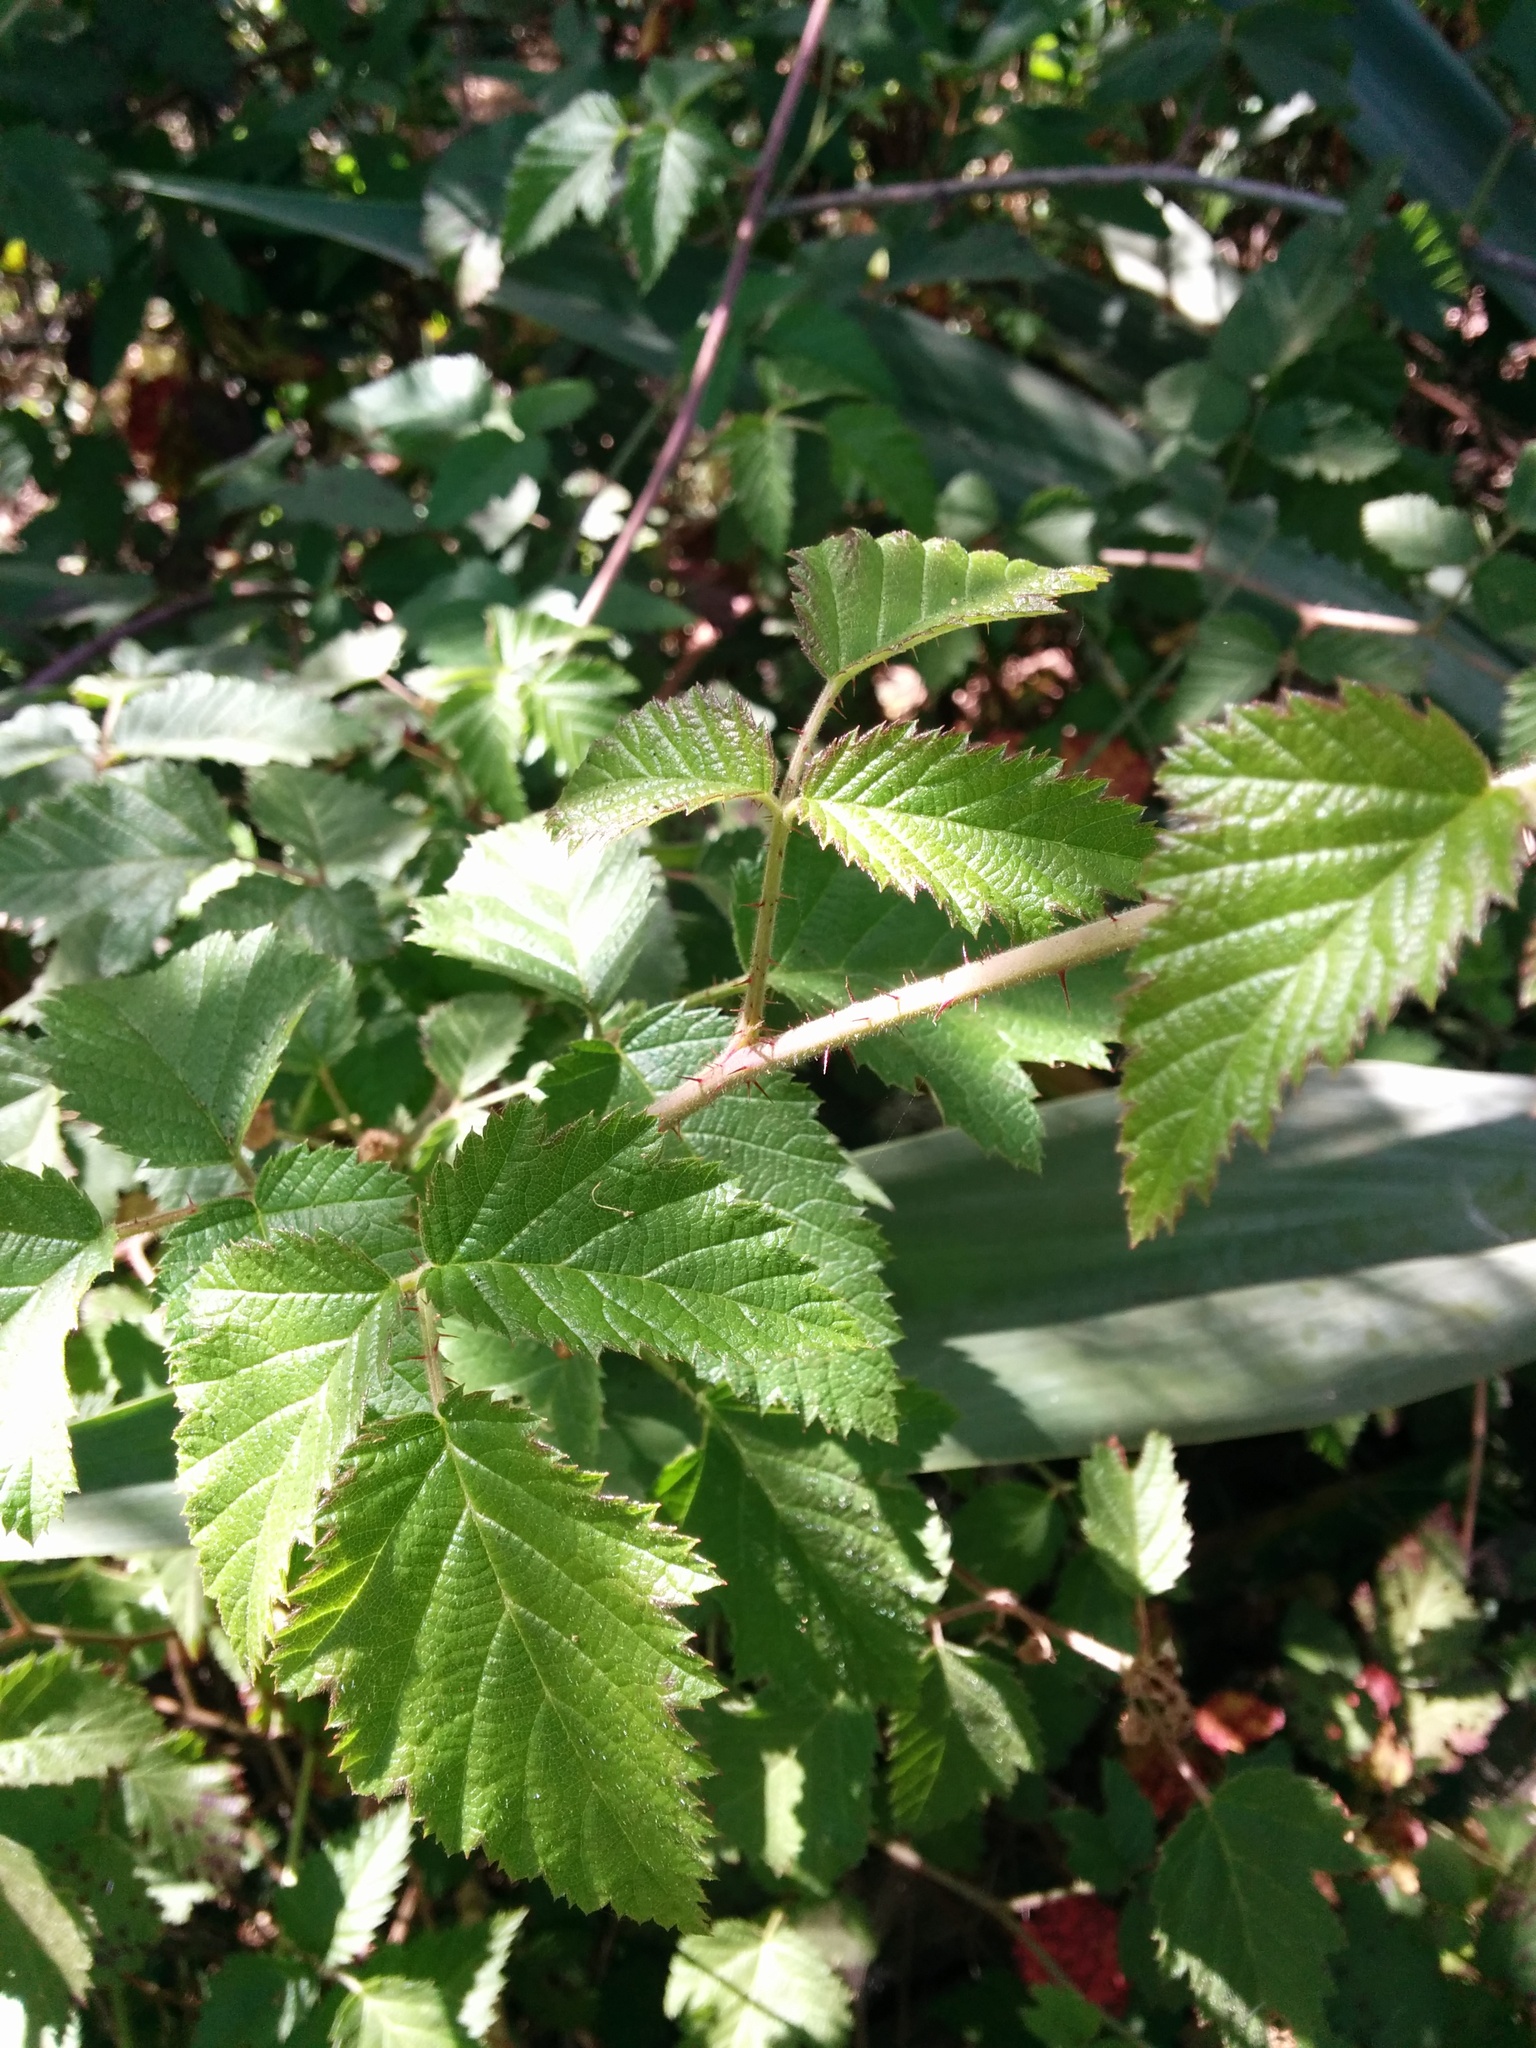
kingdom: Plantae
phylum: Tracheophyta
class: Magnoliopsida
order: Rosales
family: Rosaceae
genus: Rubus
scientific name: Rubus ursinus
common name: Pacific blackberry
